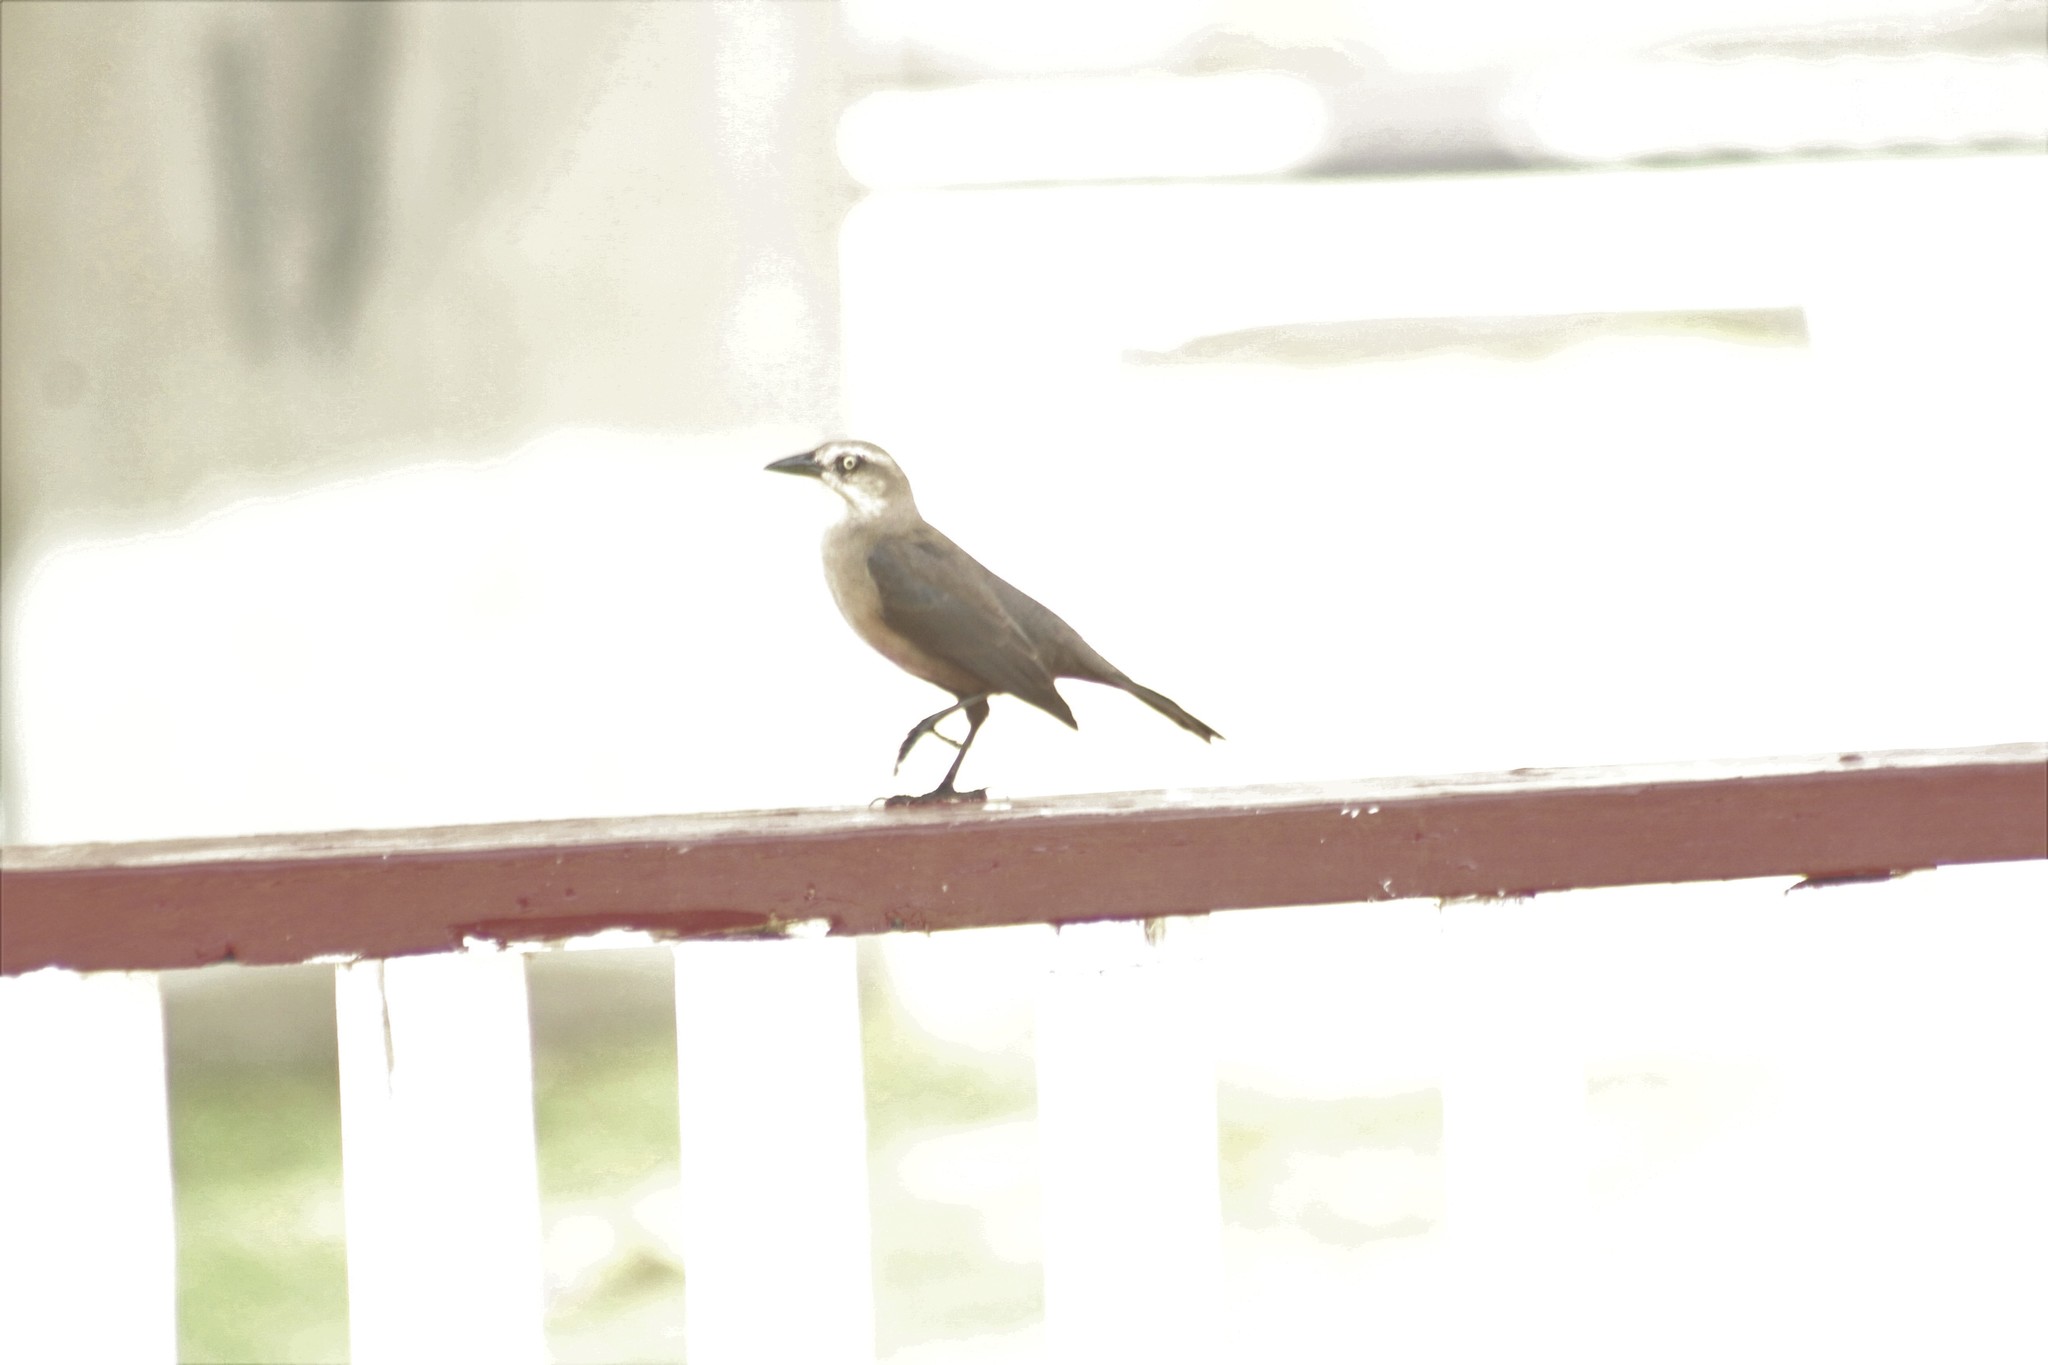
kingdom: Animalia
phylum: Chordata
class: Aves
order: Passeriformes
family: Icteridae
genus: Quiscalus
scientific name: Quiscalus lugubris
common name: Carib grackle
